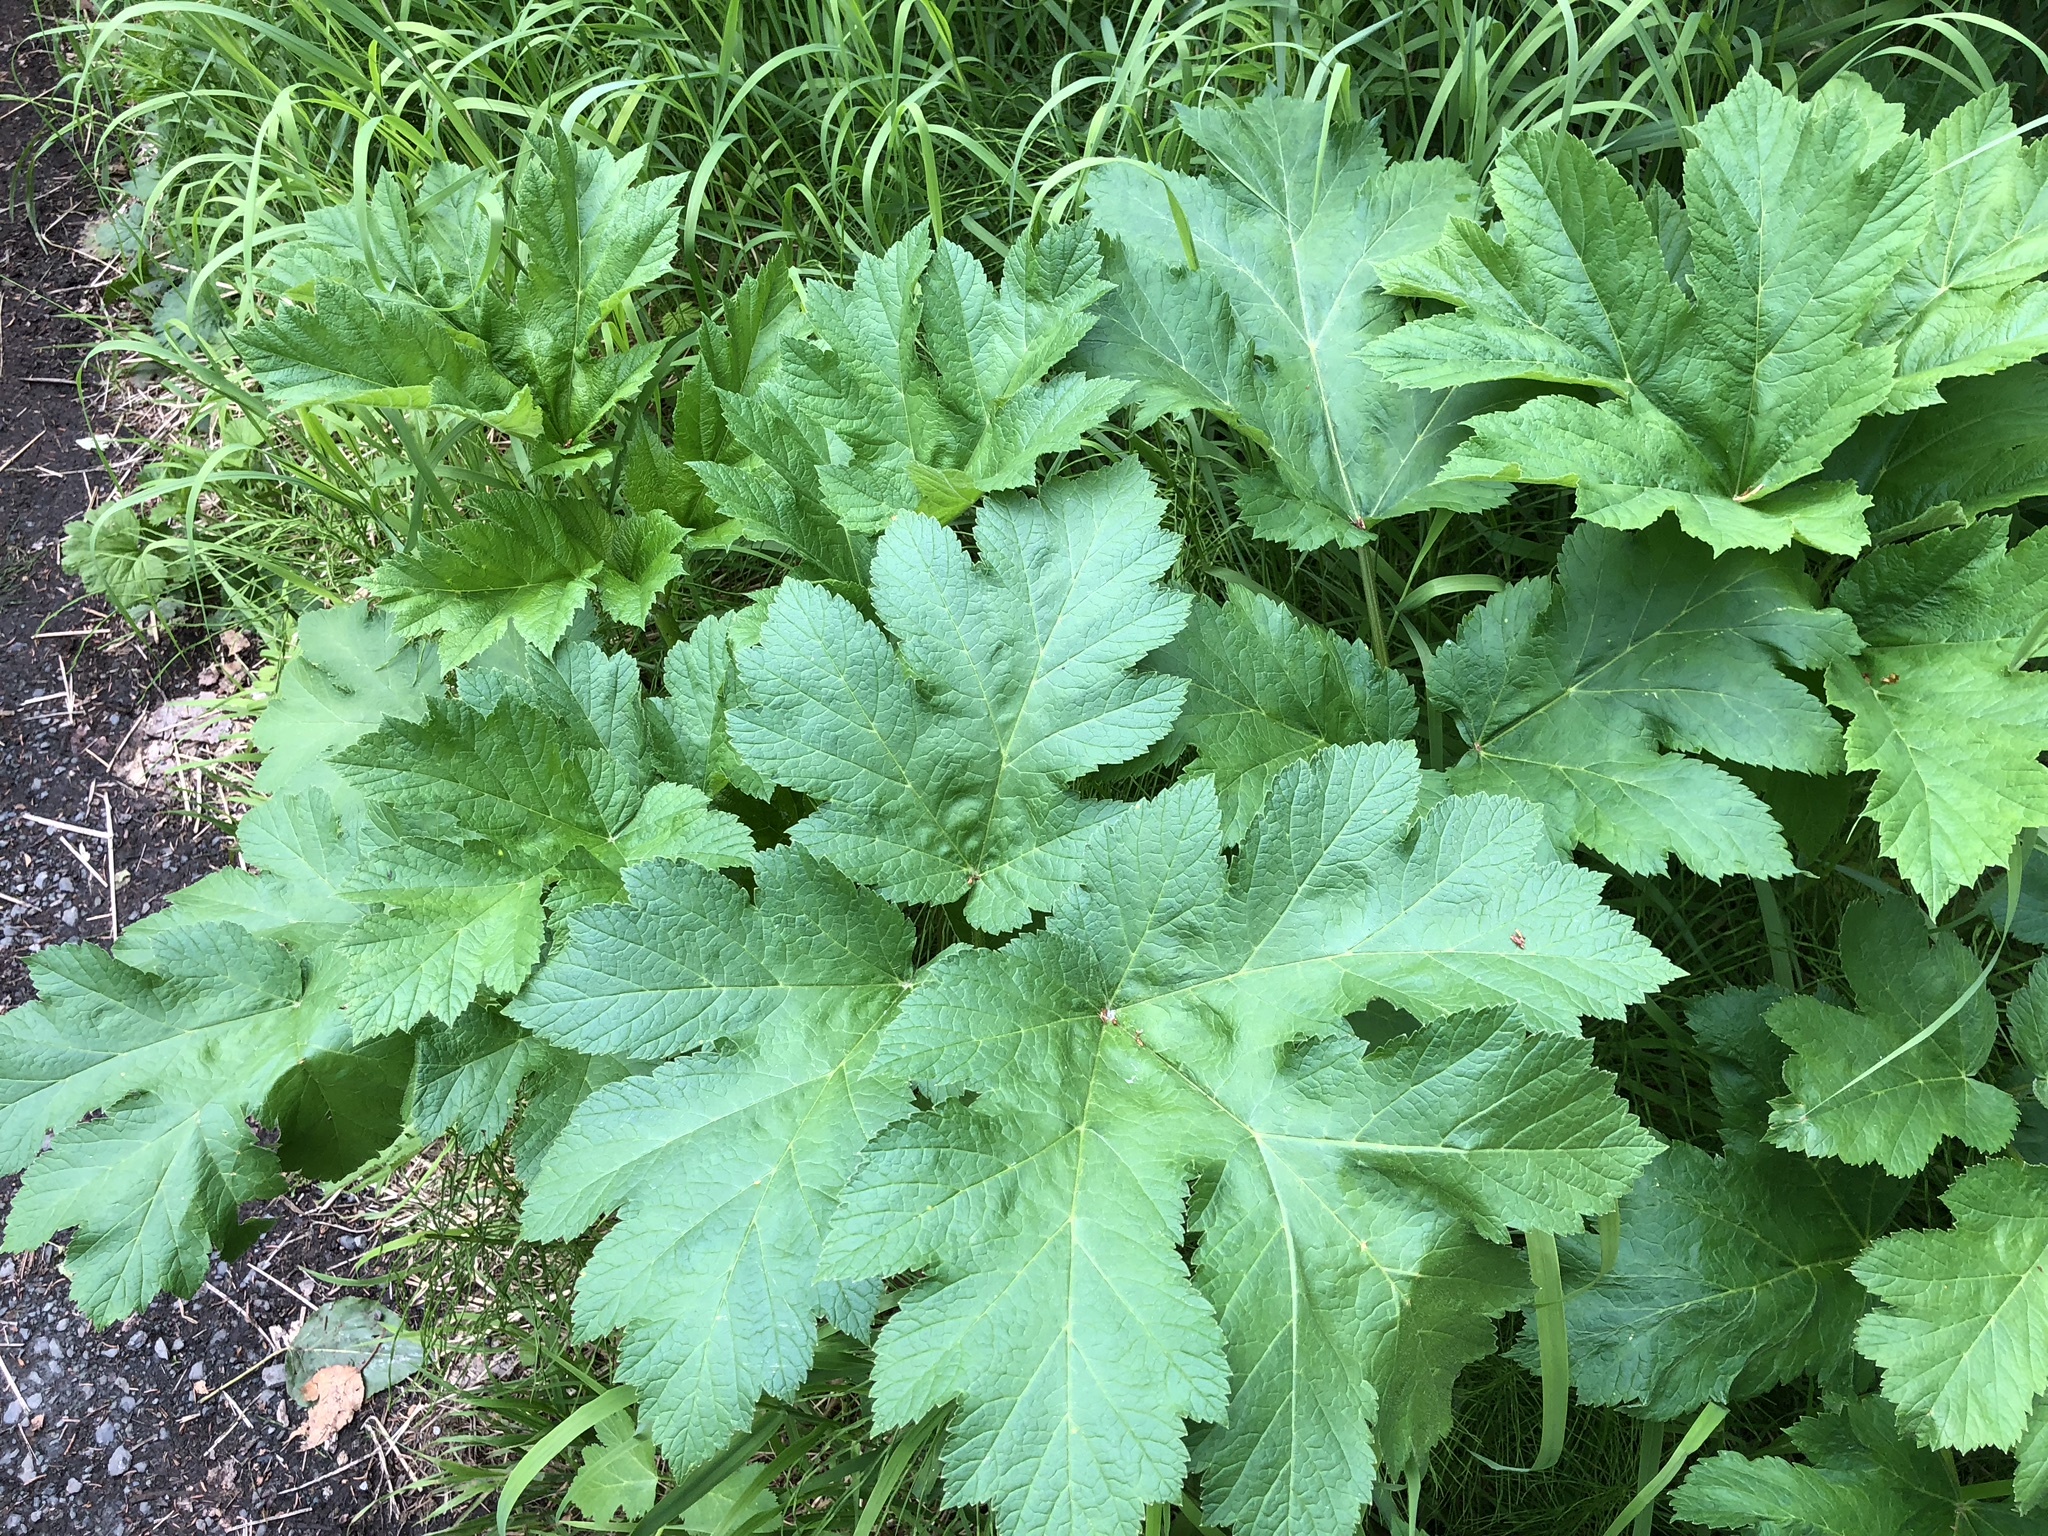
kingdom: Plantae
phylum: Tracheophyta
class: Magnoliopsida
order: Apiales
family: Apiaceae
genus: Heracleum
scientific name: Heracleum maximum
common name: American cow parsnip
